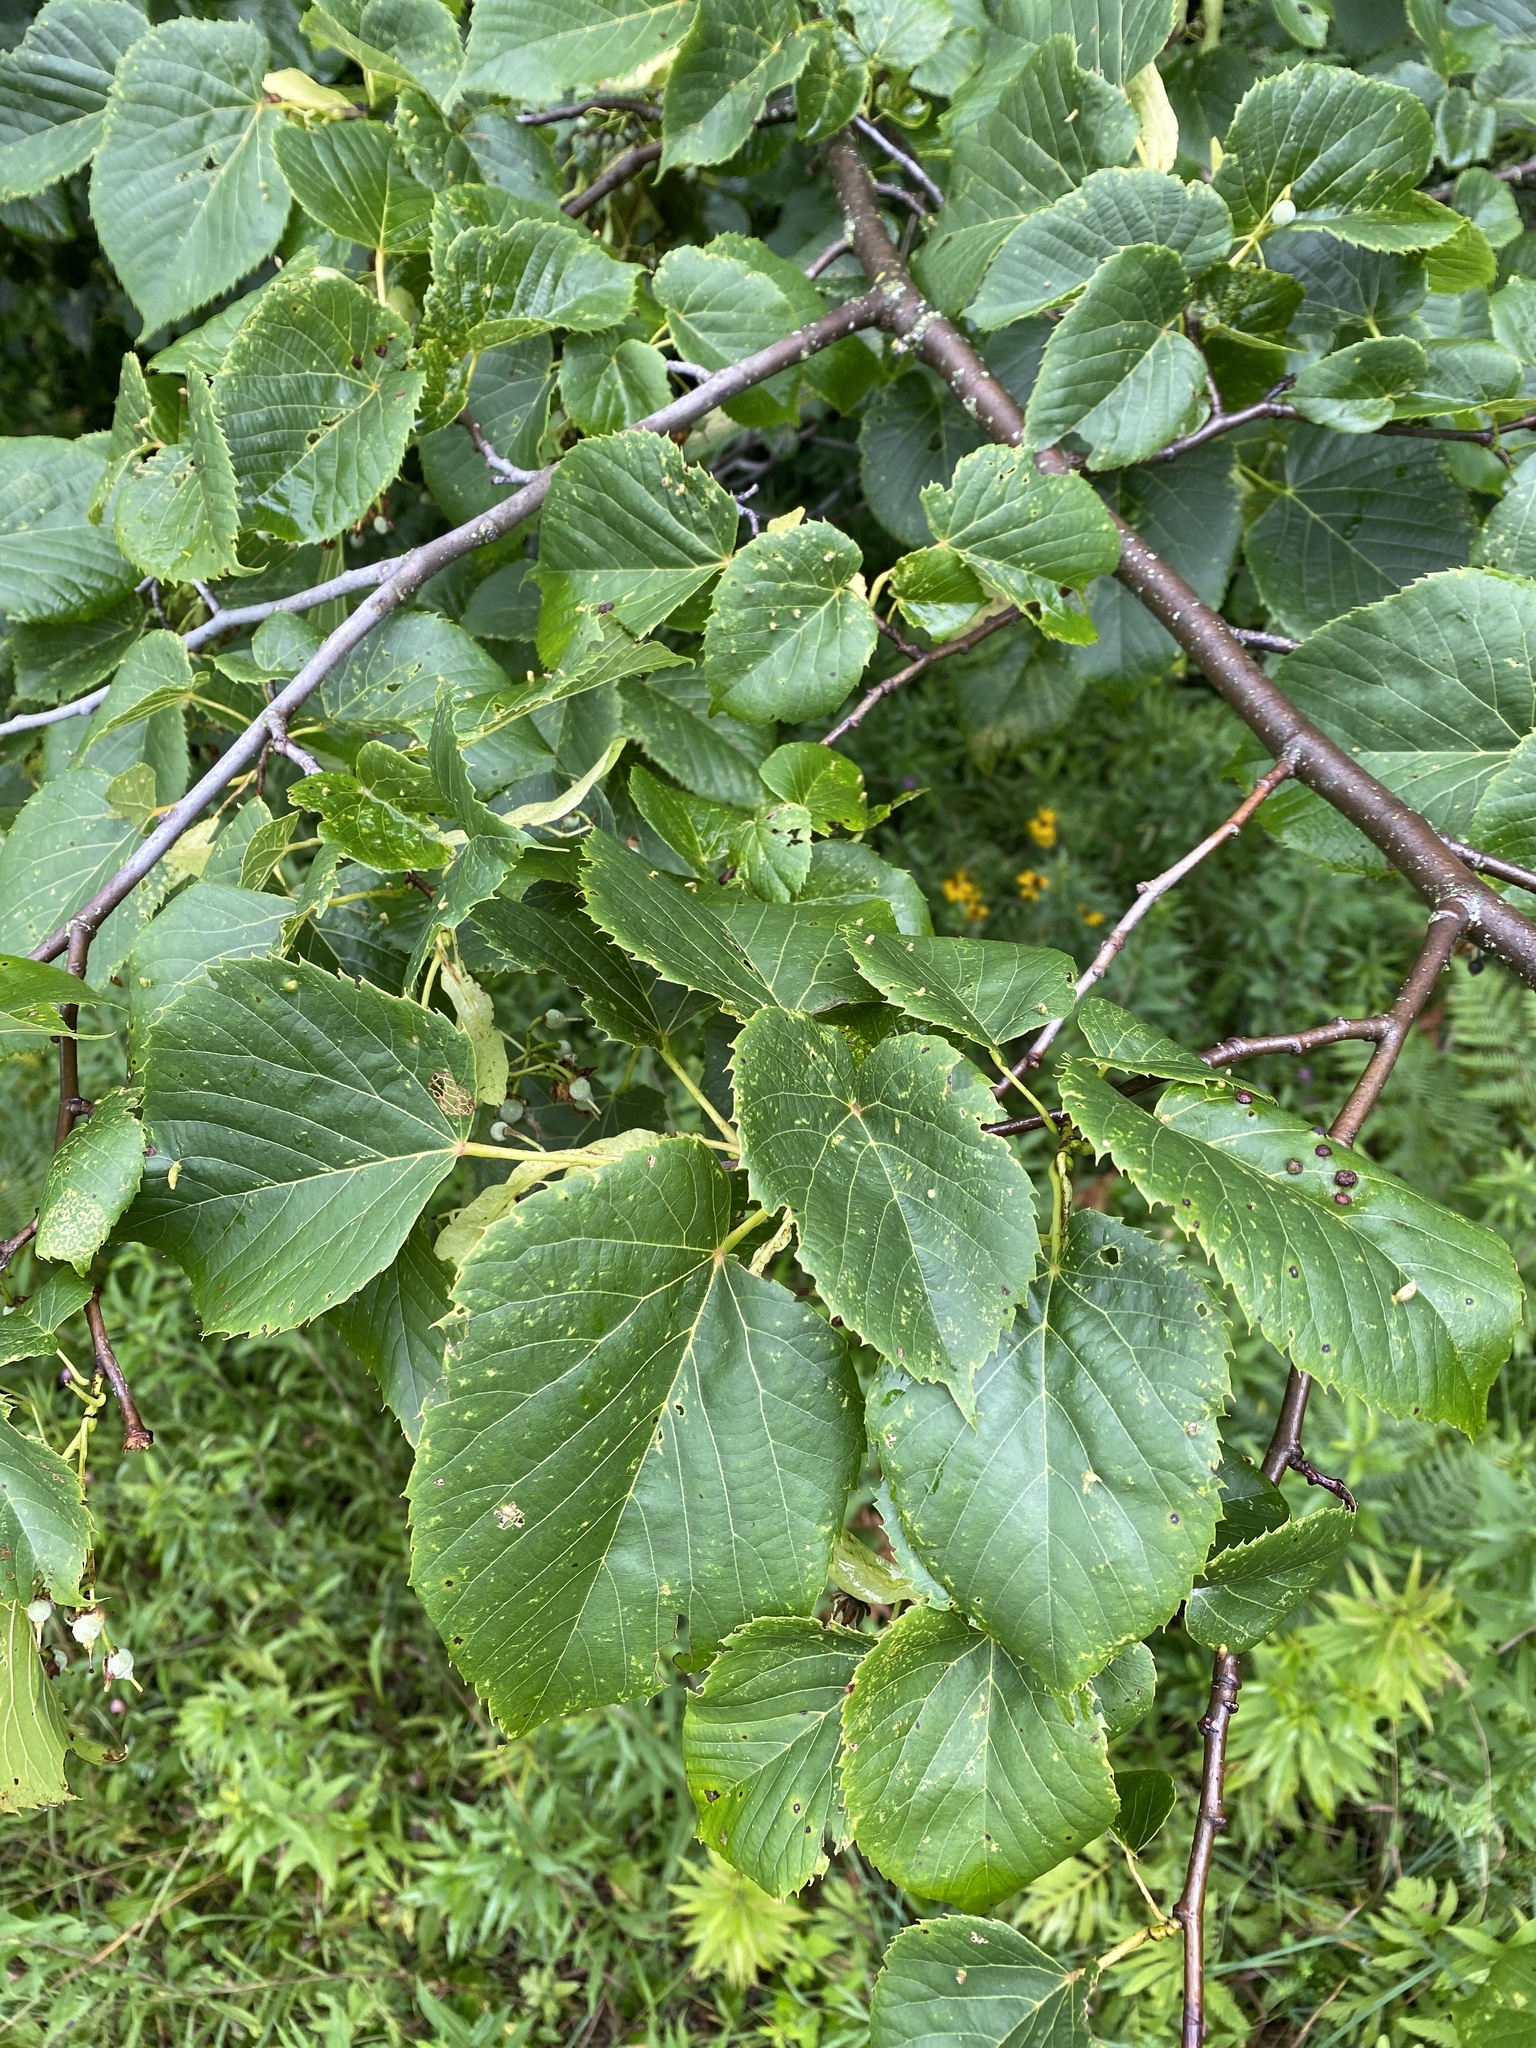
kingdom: Animalia
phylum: Arthropoda
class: Insecta
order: Diptera
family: Cecidomyiidae
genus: Contarinia
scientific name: Contarinia verrucicola
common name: Linden wart gall midge
